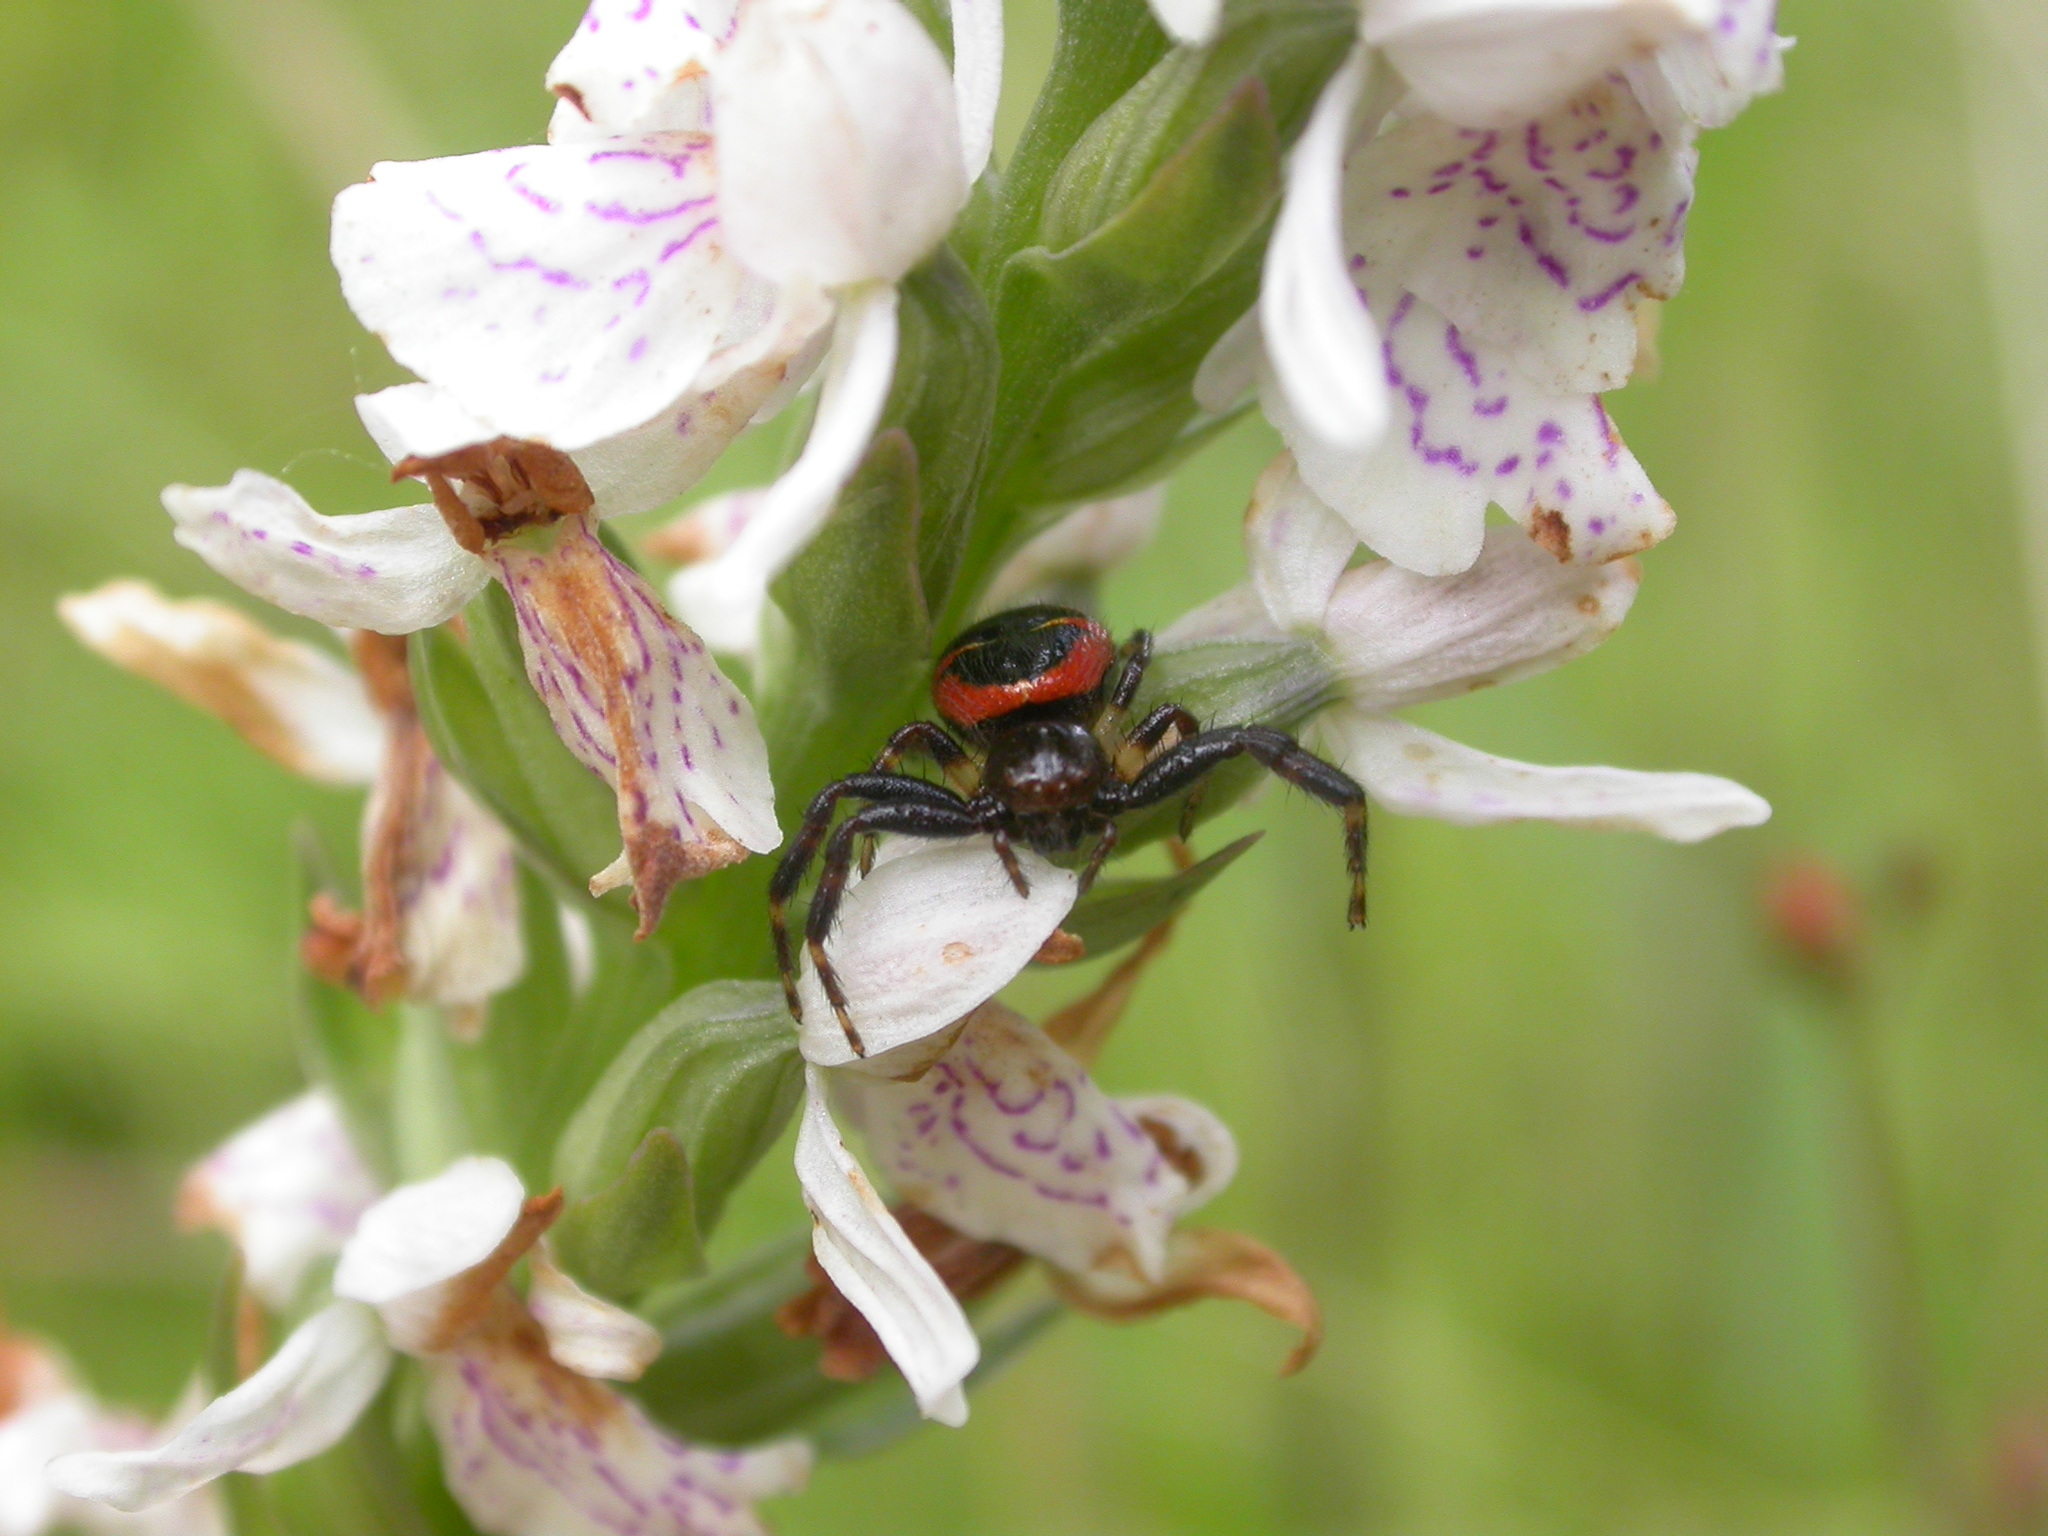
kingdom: Animalia
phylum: Arthropoda
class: Arachnida
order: Araneae
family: Thomisidae
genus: Synema
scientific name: Synema globosum
